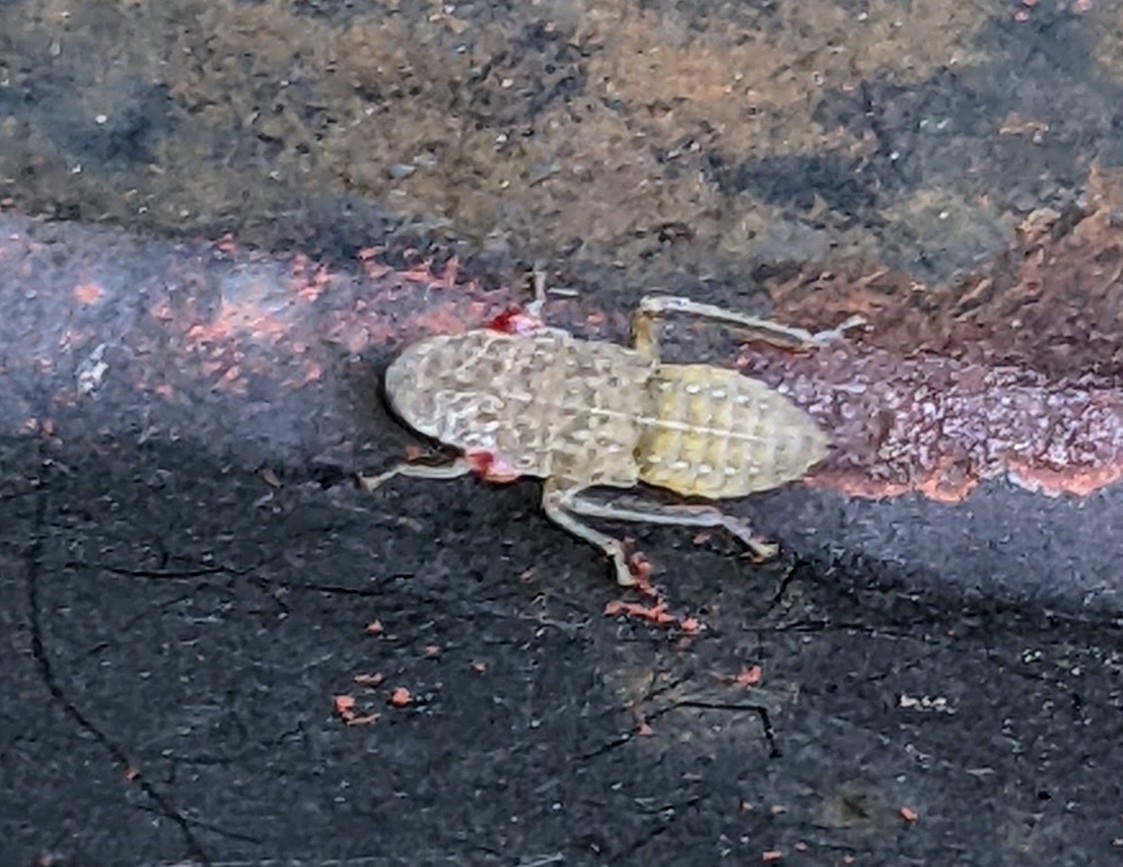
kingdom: Animalia
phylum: Arthropoda
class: Insecta
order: Hemiptera
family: Cicadellidae
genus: Homalodisca
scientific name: Homalodisca
